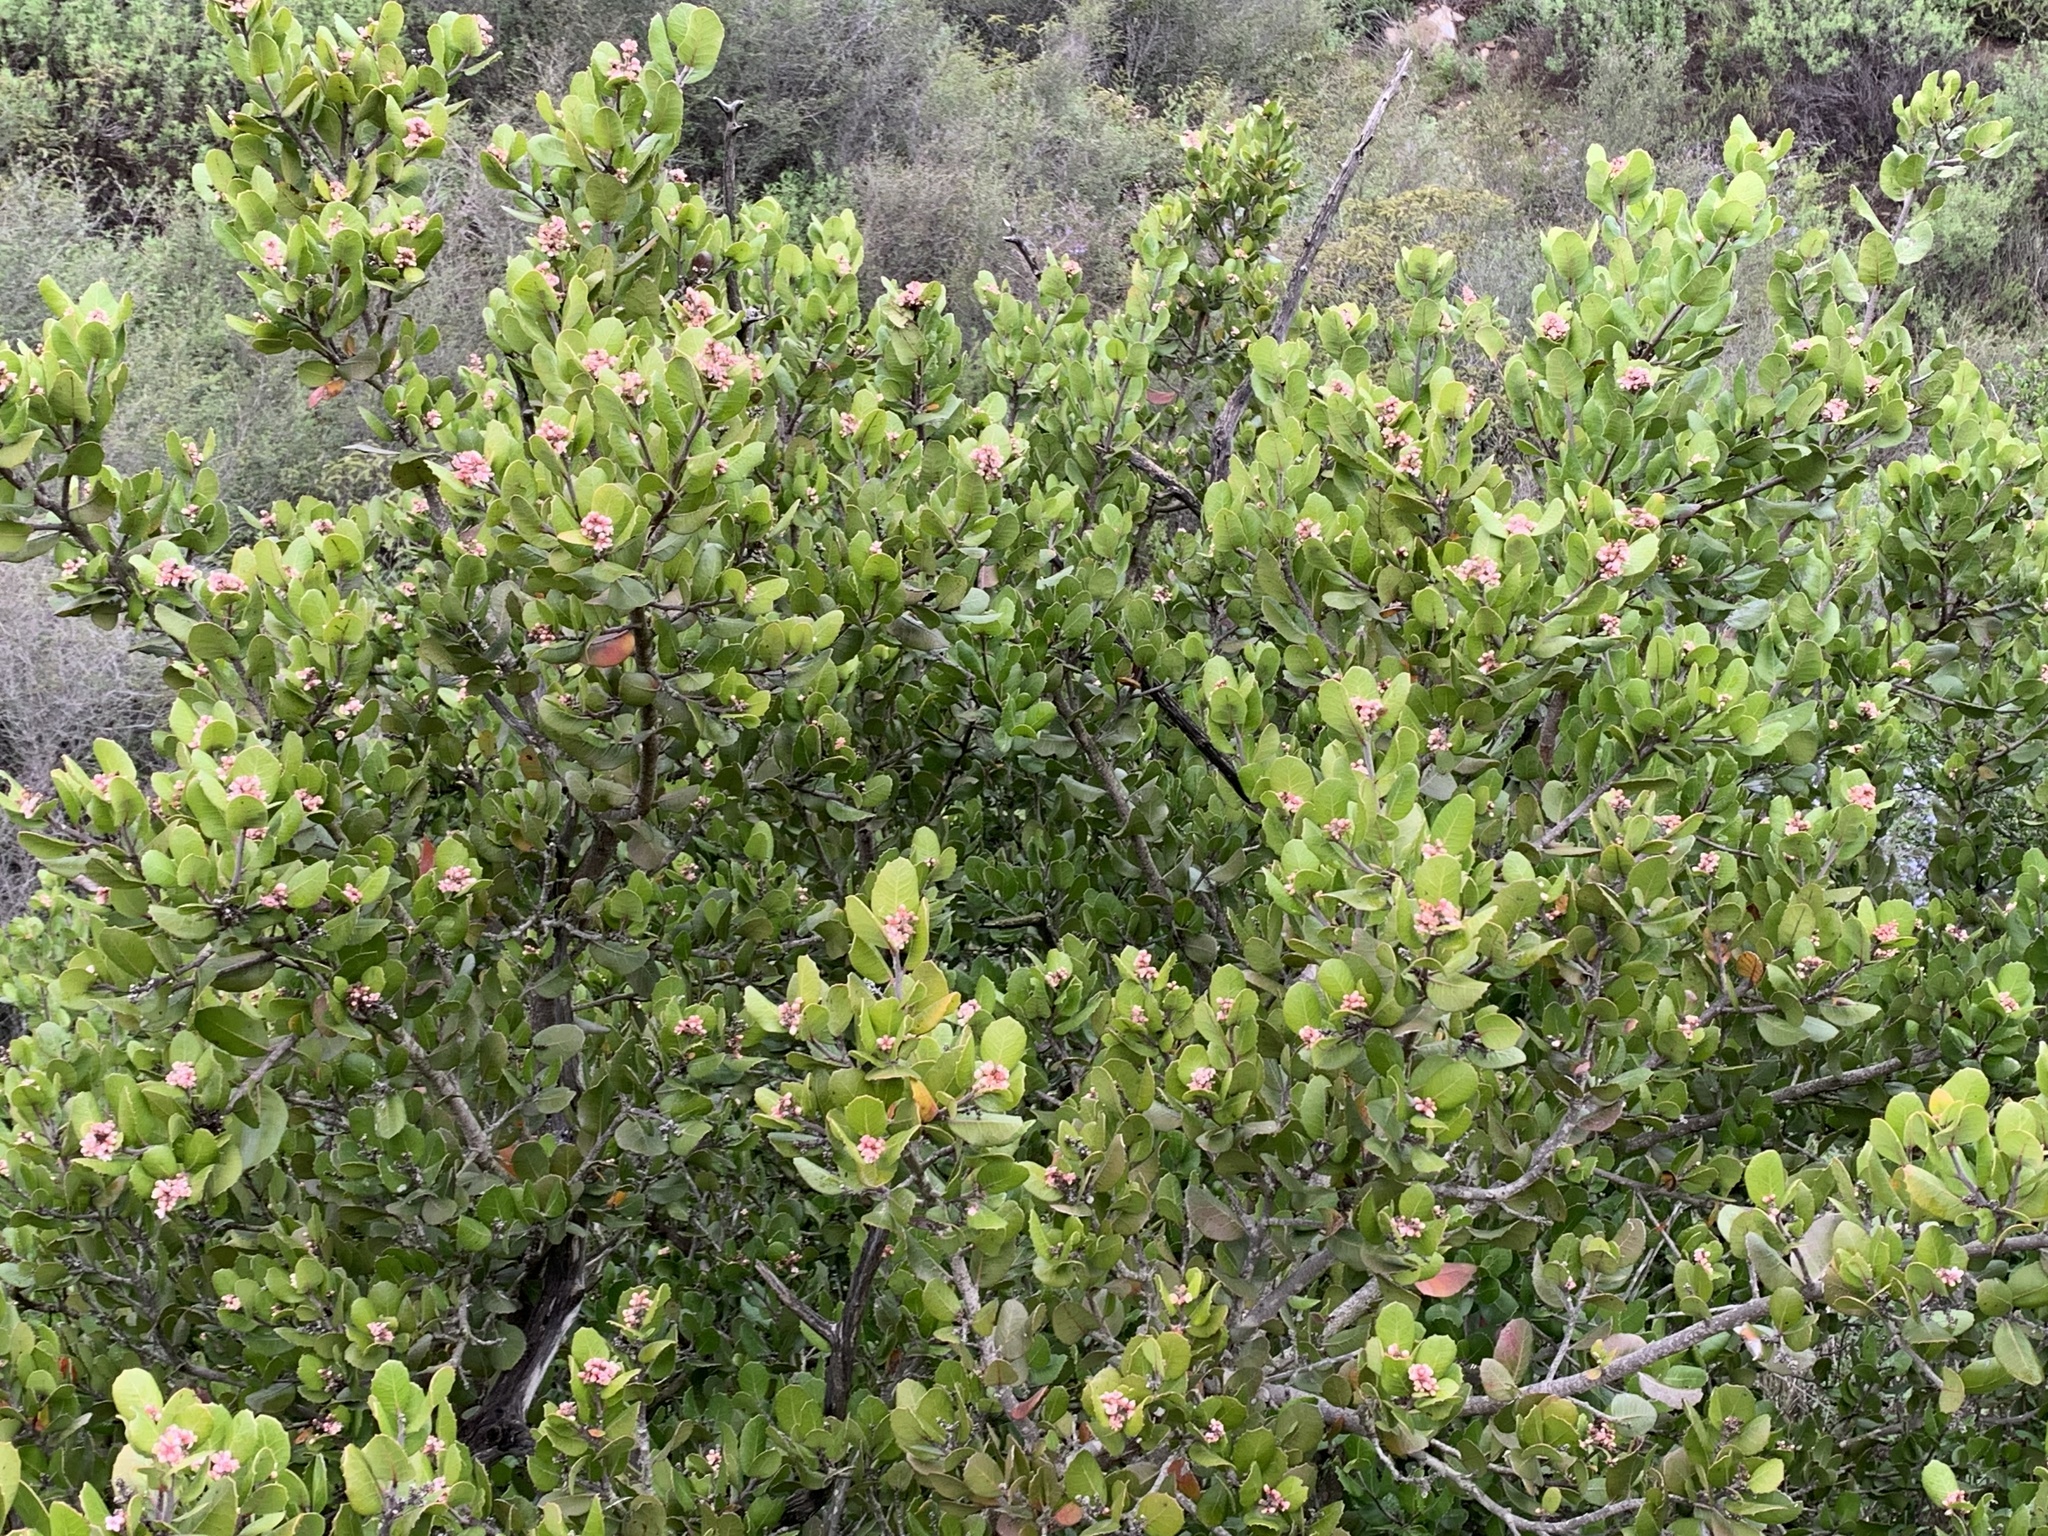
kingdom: Plantae
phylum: Tracheophyta
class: Magnoliopsida
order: Sapindales
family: Anacardiaceae
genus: Rhus
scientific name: Rhus integrifolia
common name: Lemonade sumac
